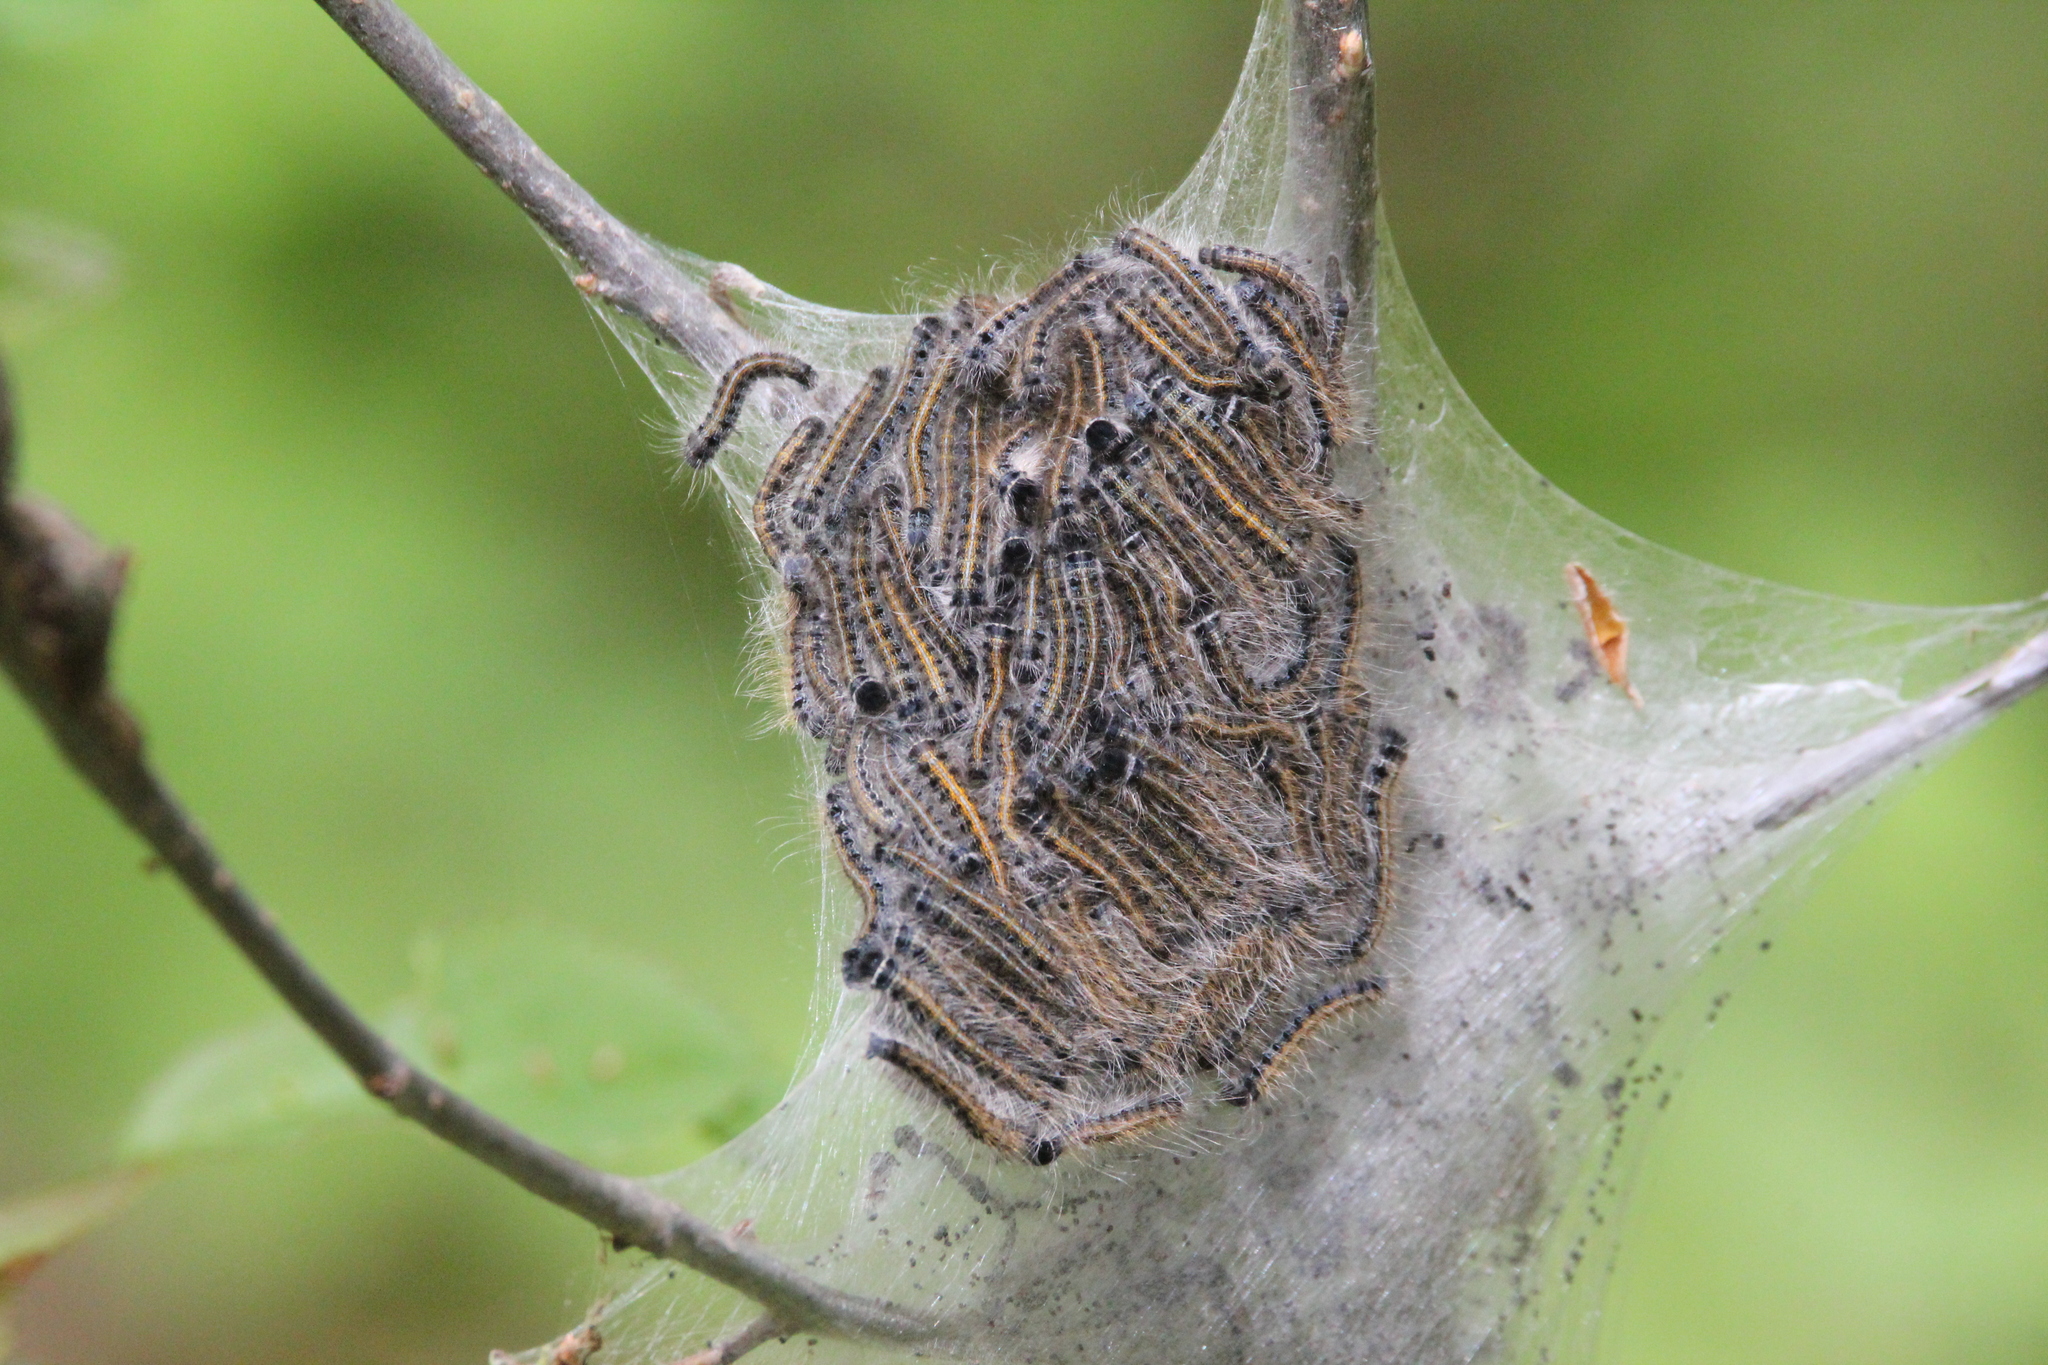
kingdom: Animalia
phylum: Arthropoda
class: Insecta
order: Lepidoptera
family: Lasiocampidae
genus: Malacosoma
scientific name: Malacosoma americana
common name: Eastern tent caterpillar moth
